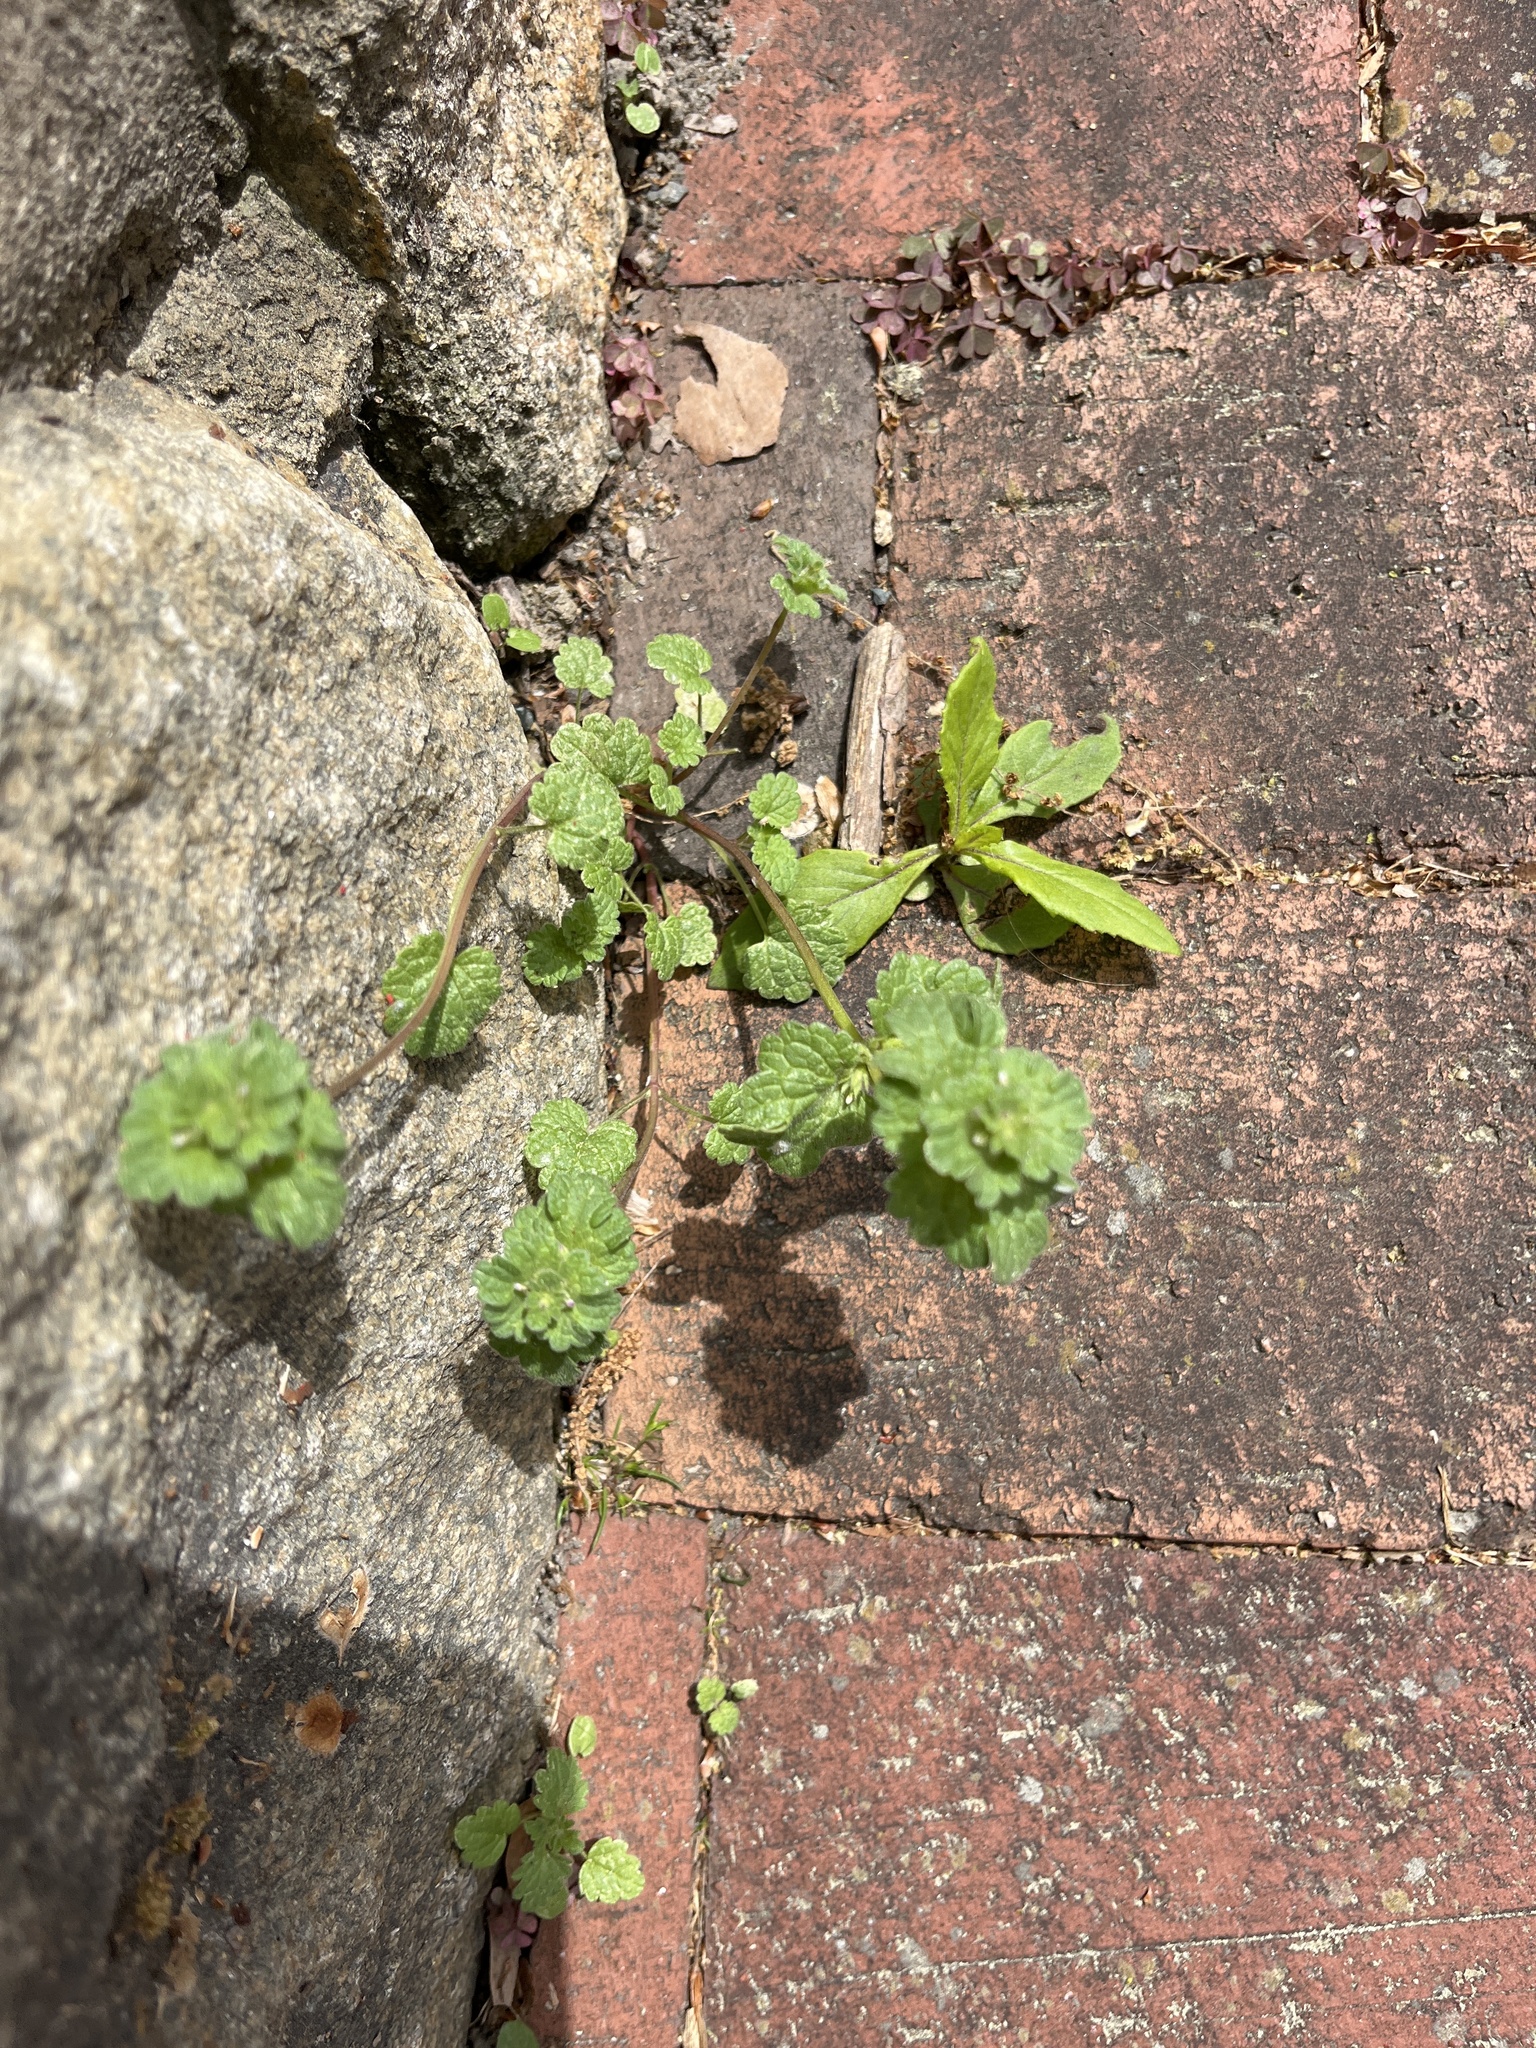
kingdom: Plantae
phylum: Tracheophyta
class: Magnoliopsida
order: Lamiales
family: Lamiaceae
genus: Lamium
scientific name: Lamium amplexicaule
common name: Henbit dead-nettle
